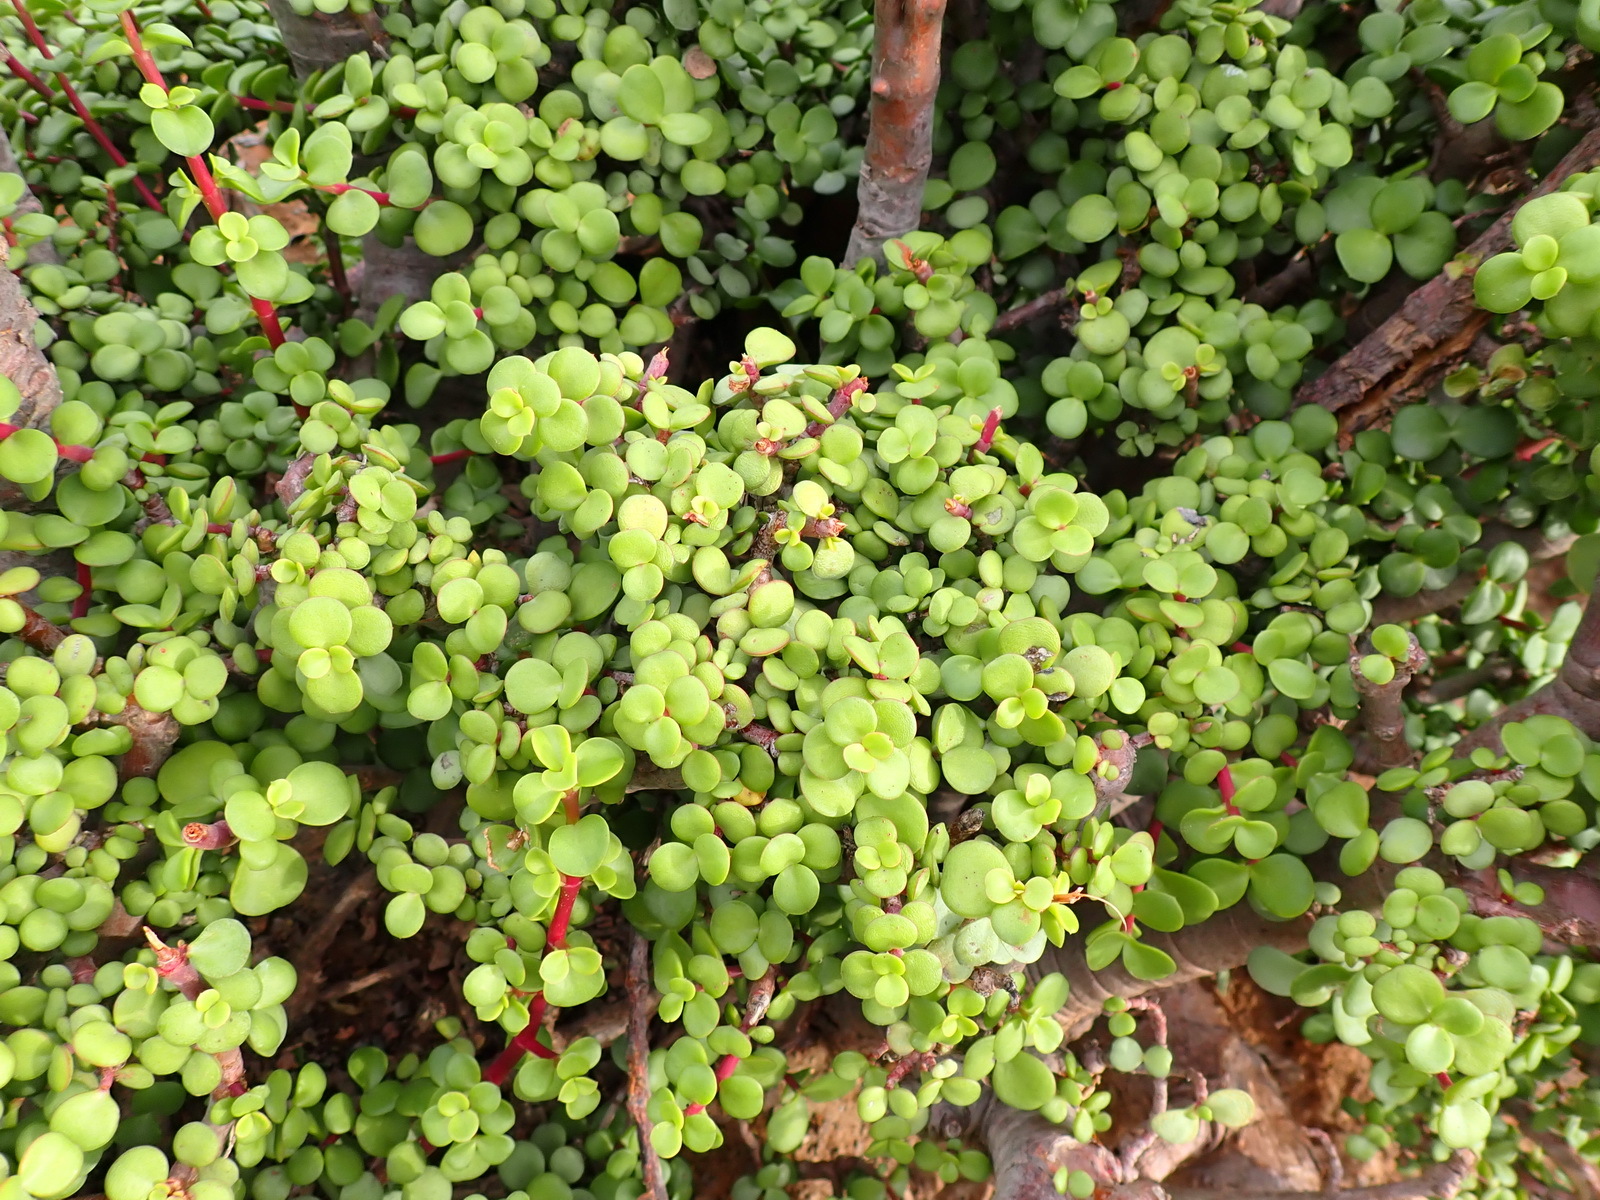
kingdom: Plantae
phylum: Tracheophyta
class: Magnoliopsida
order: Caryophyllales
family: Didiereaceae
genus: Portulacaria
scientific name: Portulacaria afra
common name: Elephant-bush
